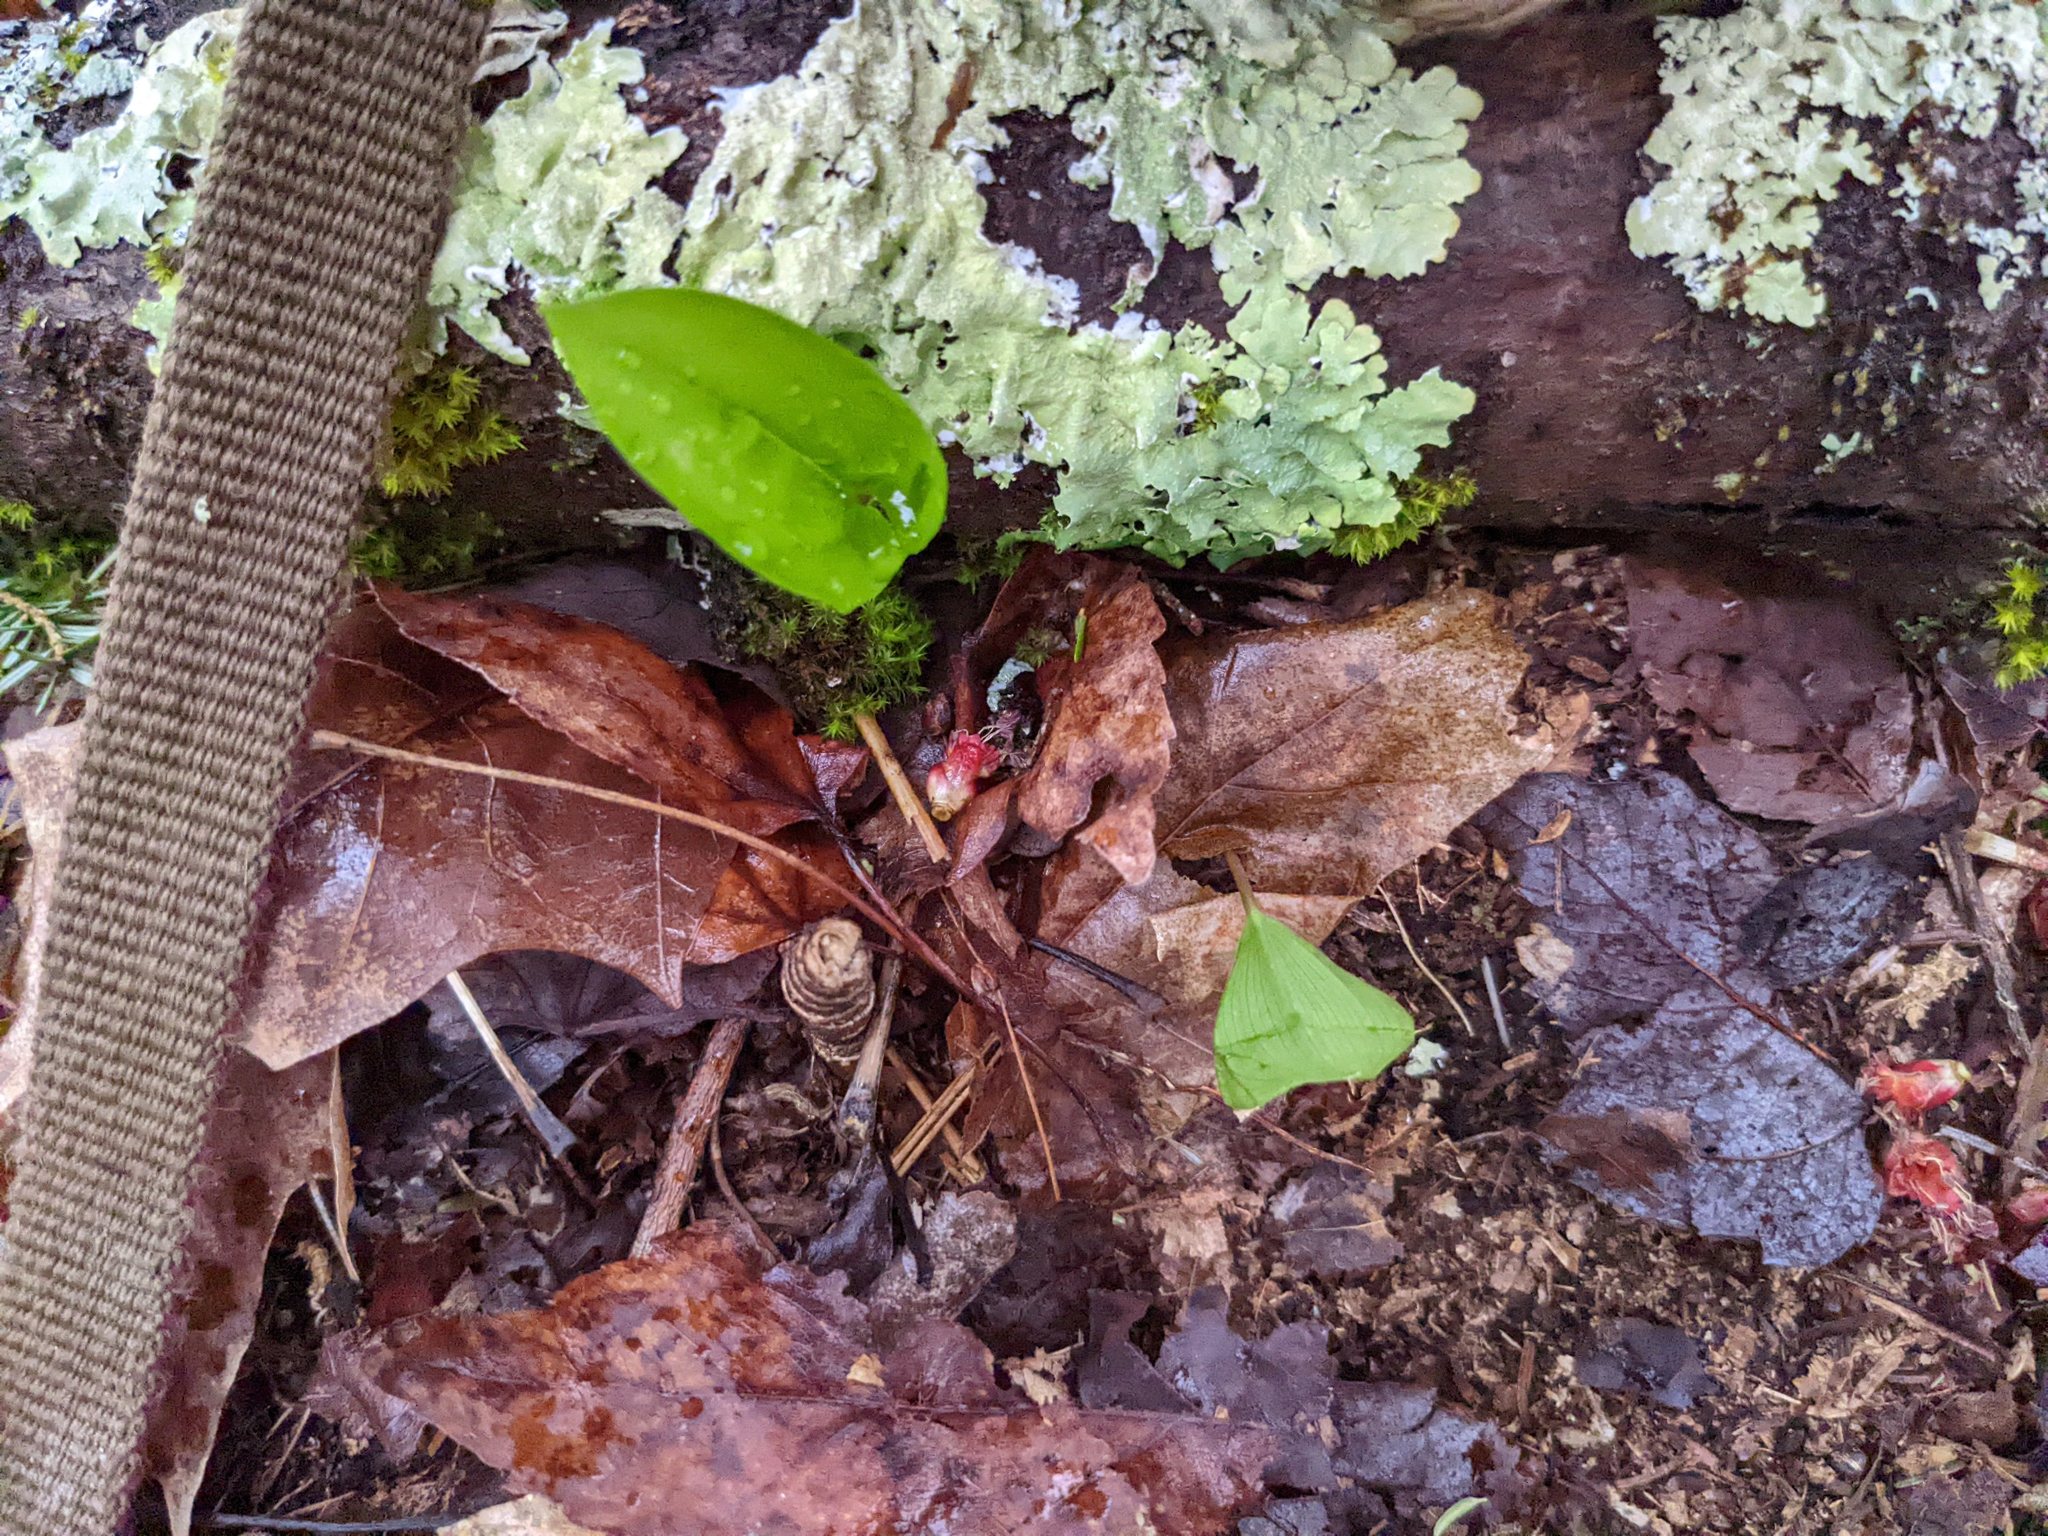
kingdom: Plantae
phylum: Tracheophyta
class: Liliopsida
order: Asparagales
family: Asparagaceae
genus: Maianthemum
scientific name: Maianthemum canadense
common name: False lily-of-the-valley
